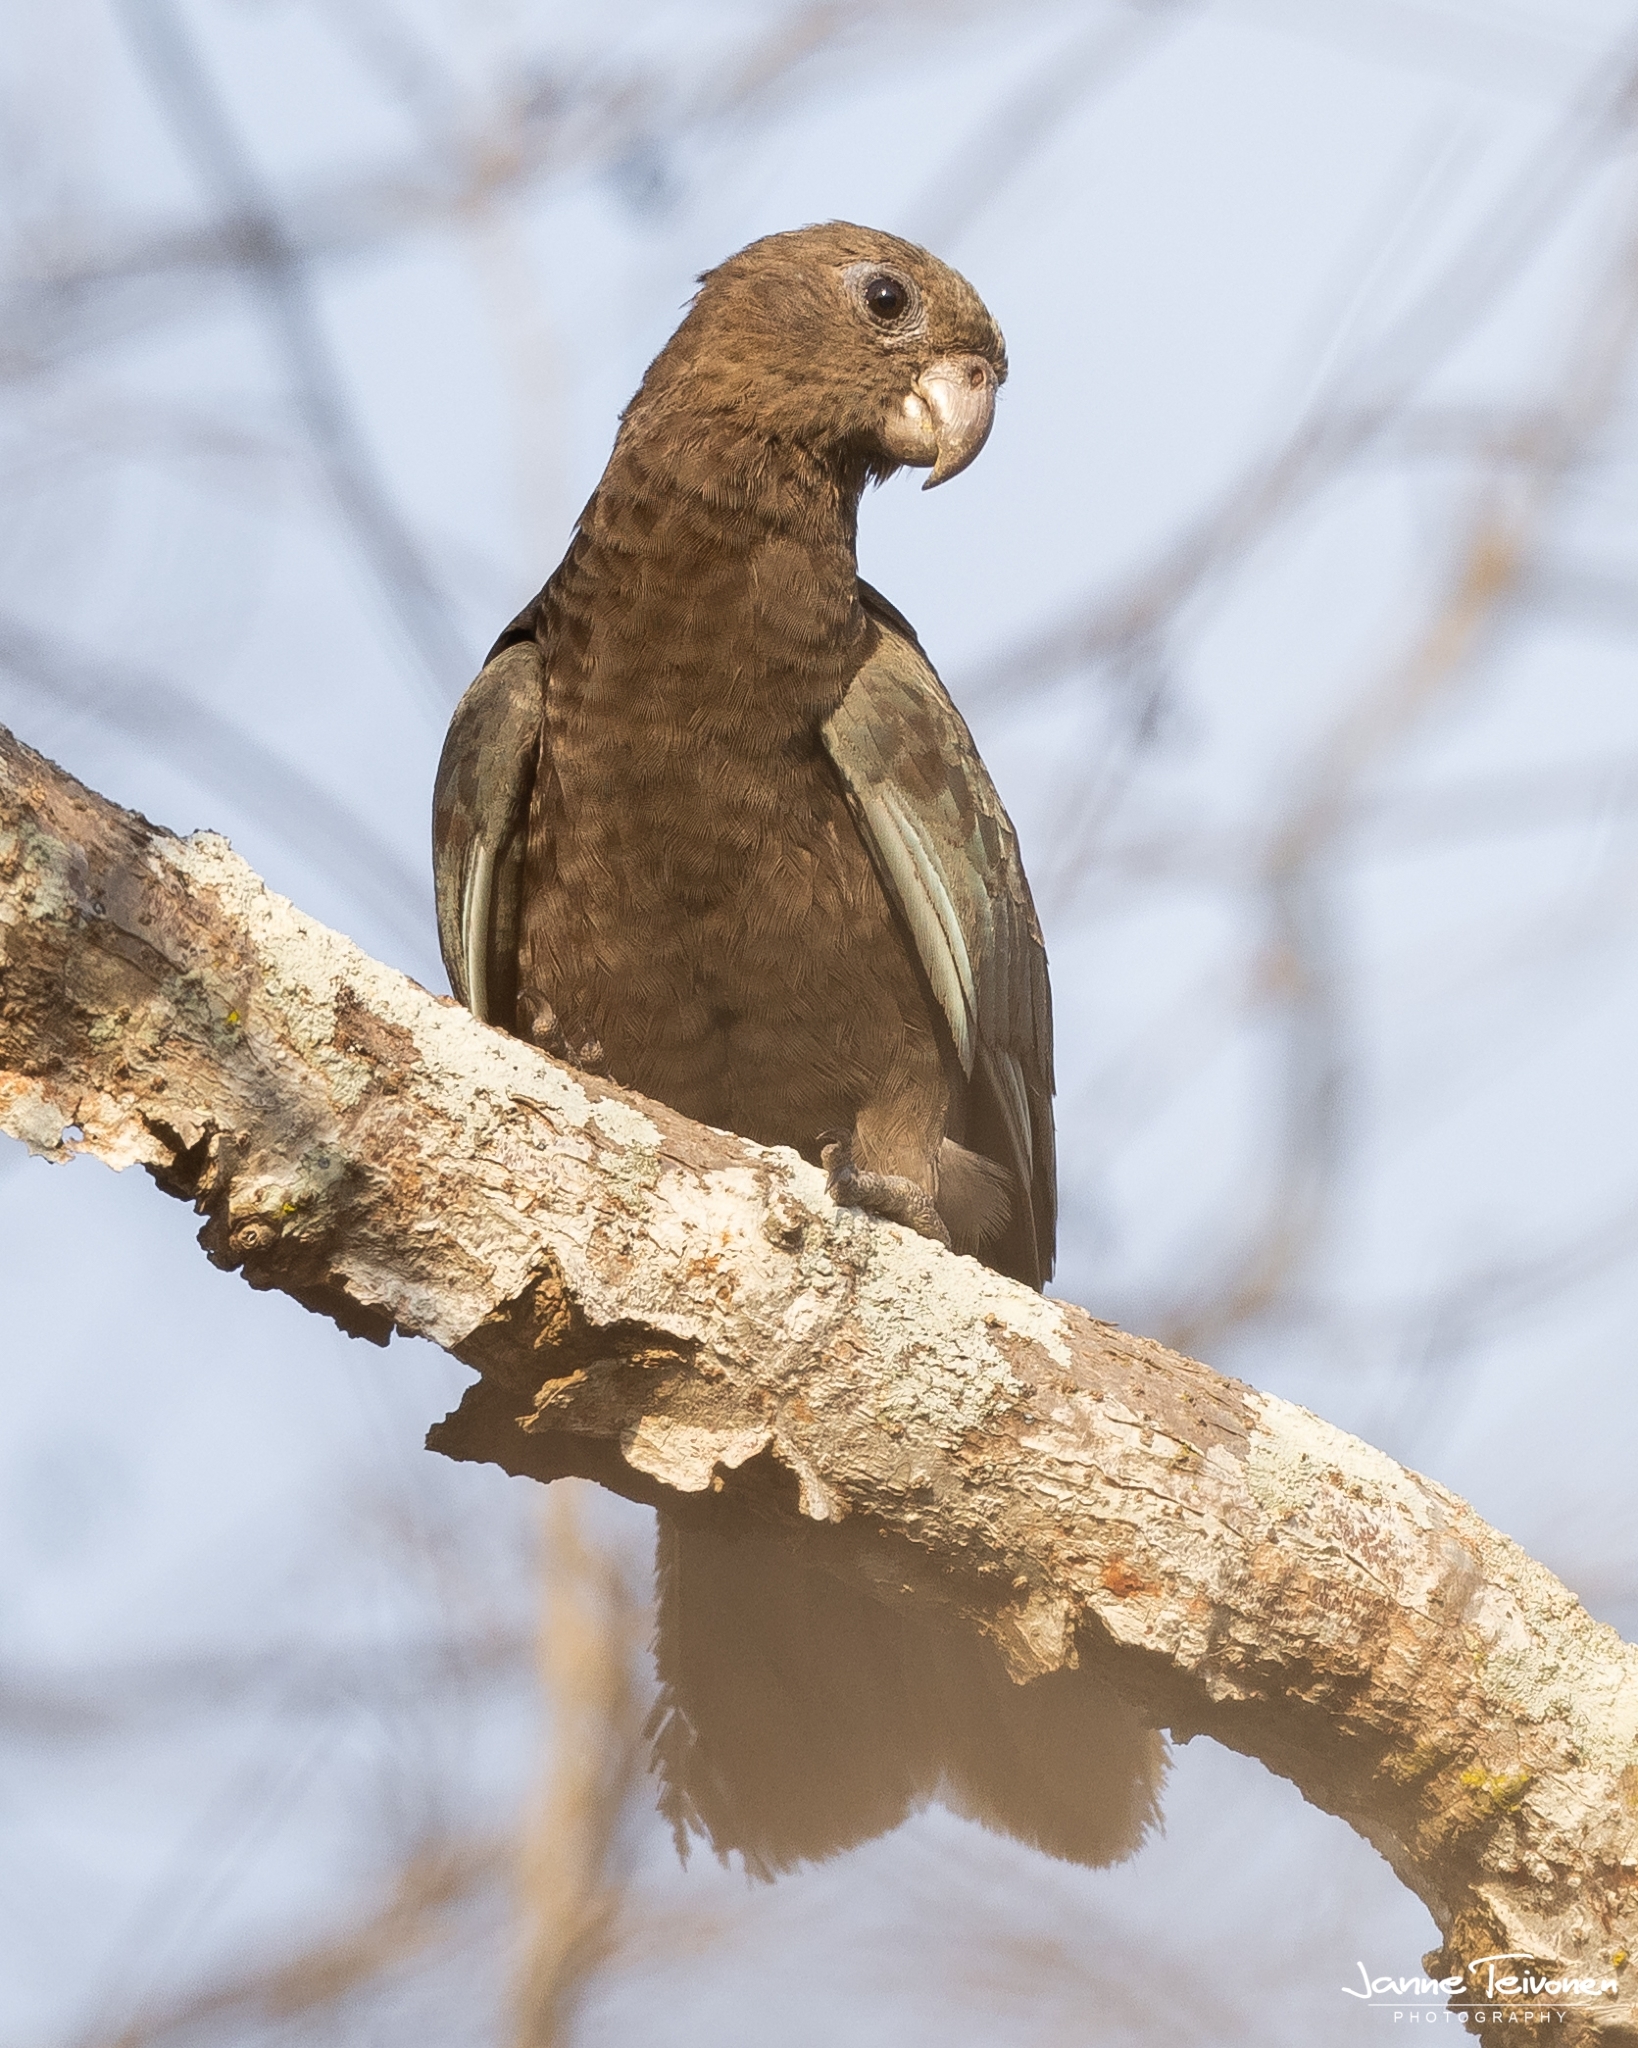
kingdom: Animalia
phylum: Chordata
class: Aves
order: Psittaciformes
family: Psittacidae
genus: Coracopsis
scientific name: Coracopsis nigra
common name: Lesser vasa parrot
